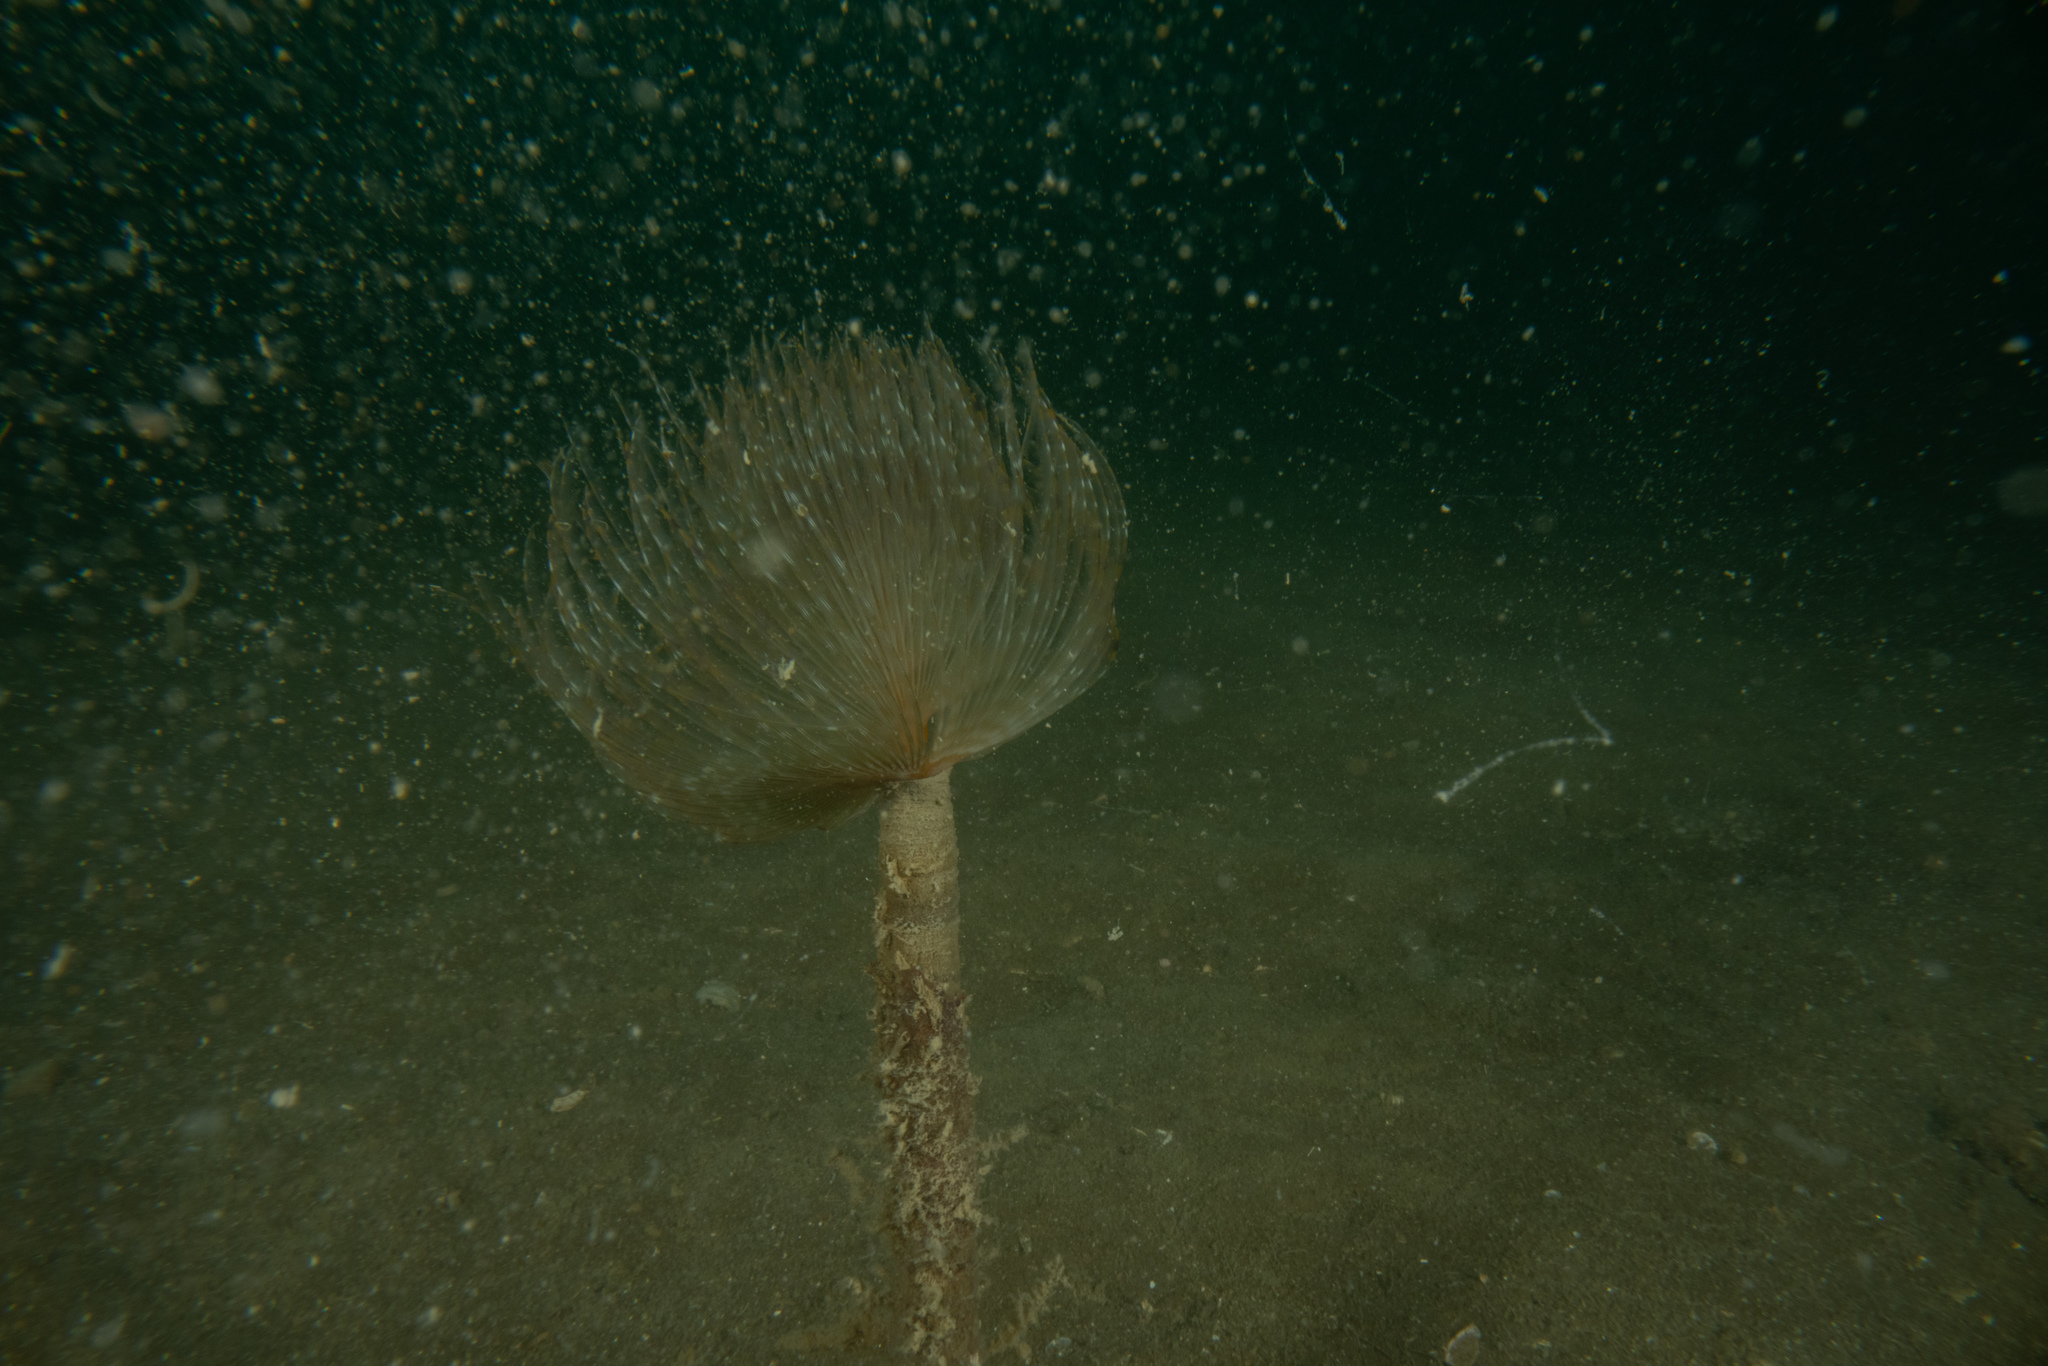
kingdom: Animalia
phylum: Annelida
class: Polychaeta
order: Sabellida
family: Sabellidae
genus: Sabella
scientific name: Sabella spallanzanii
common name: Feather duster worm
